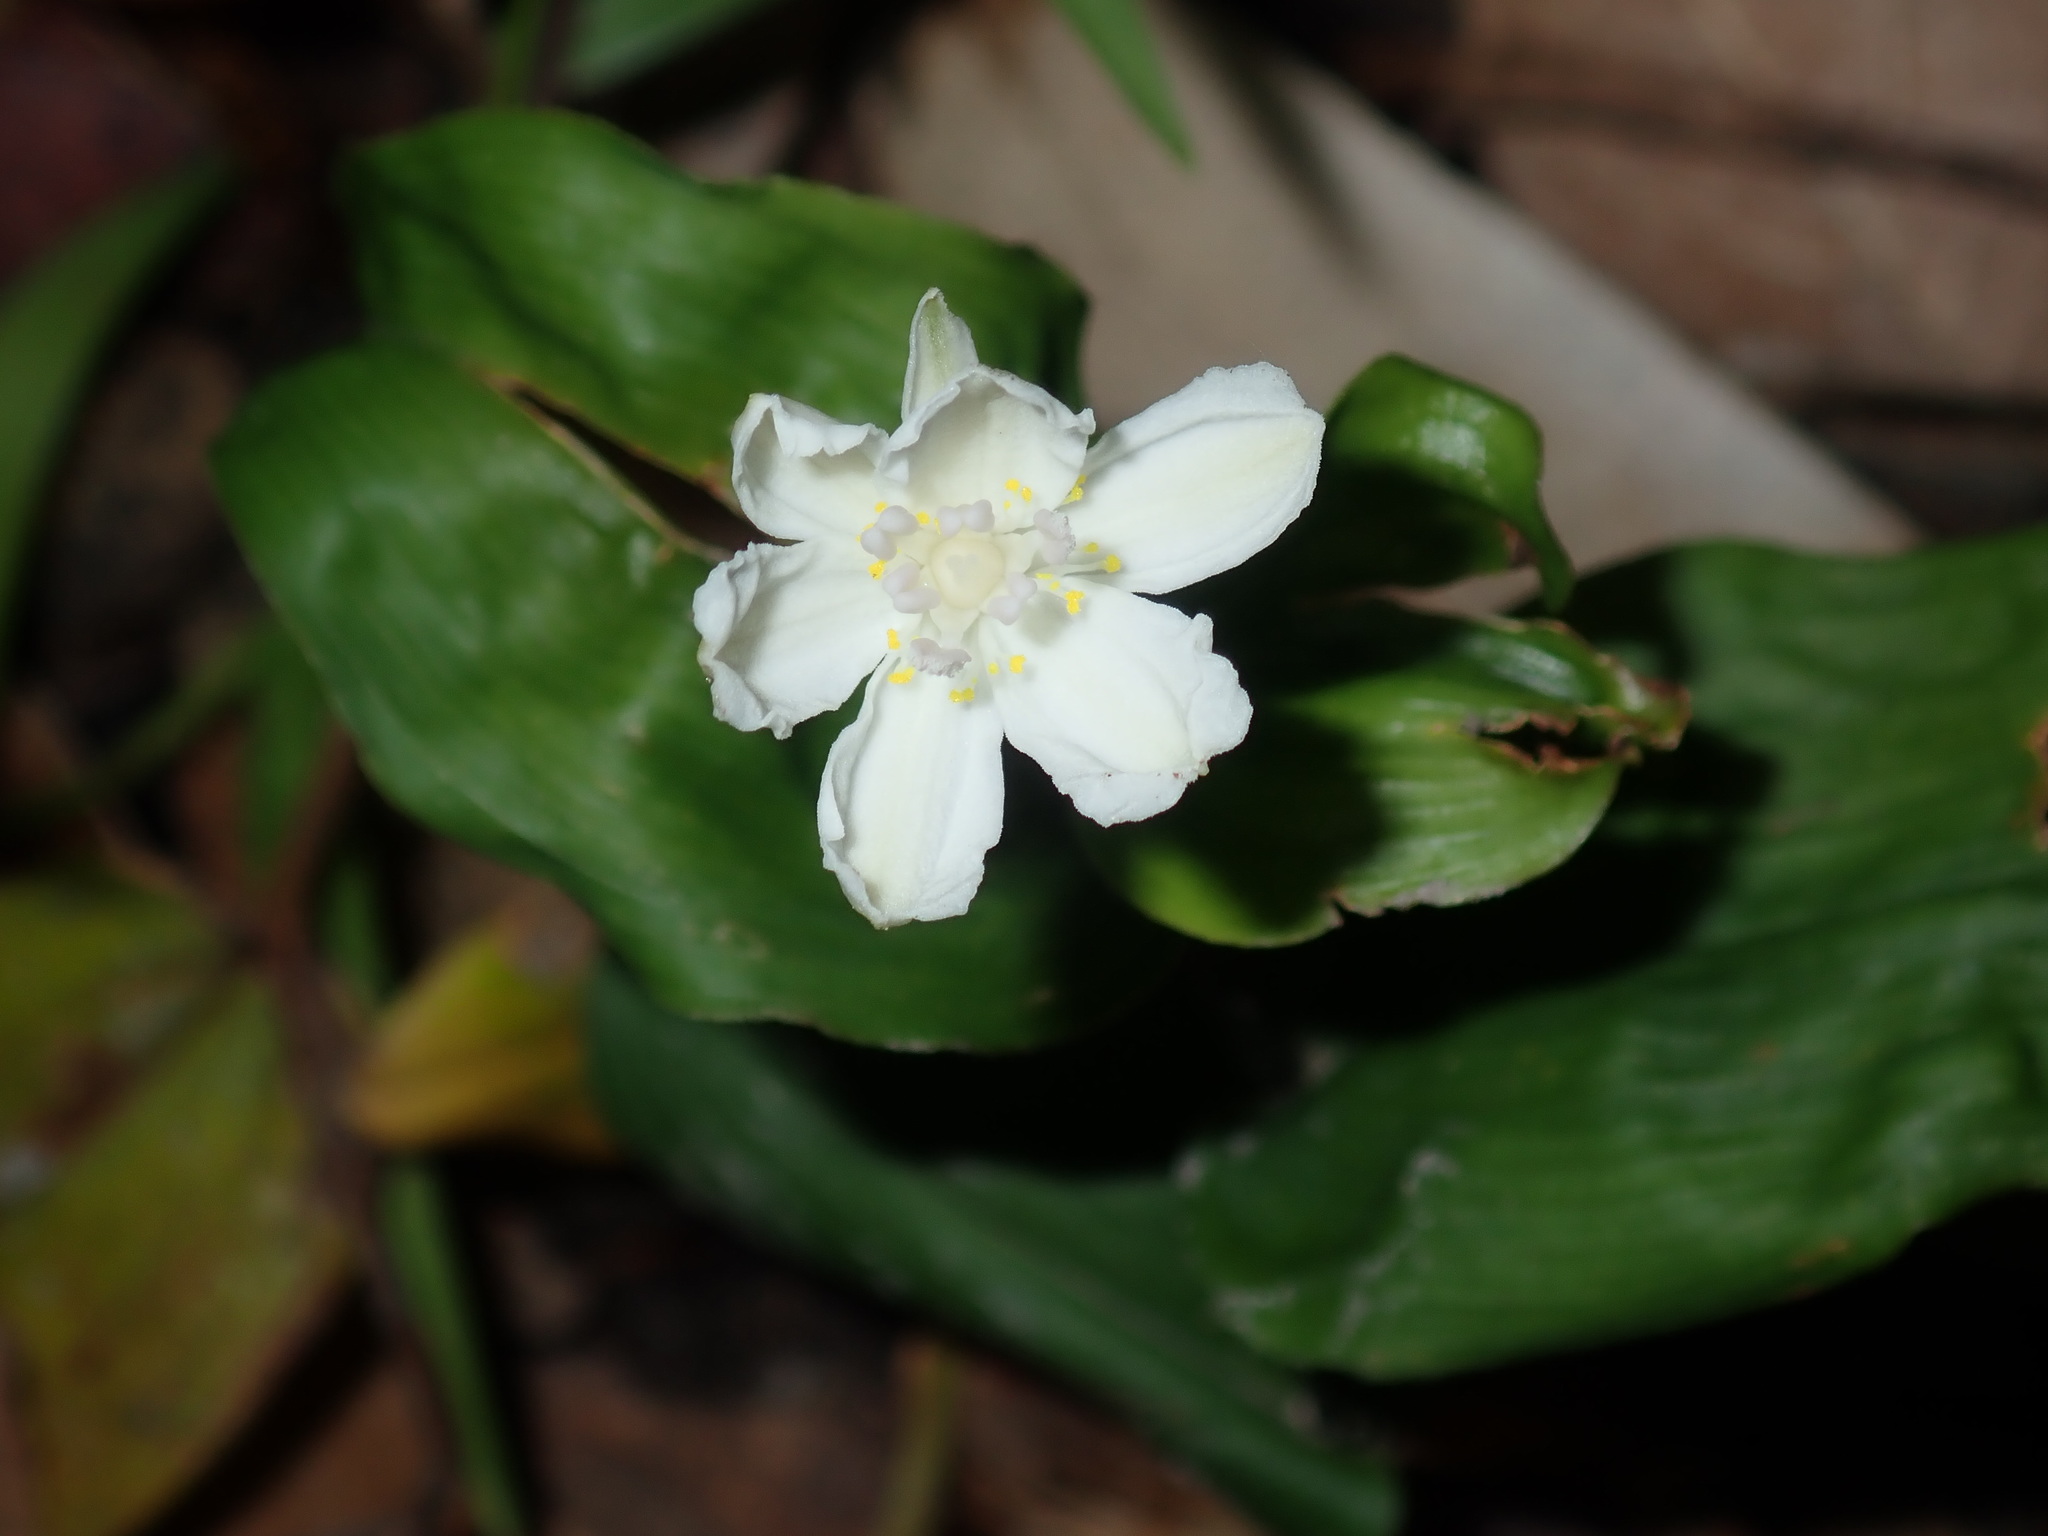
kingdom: Plantae
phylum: Tracheophyta
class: Liliopsida
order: Liliales
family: Colchicaceae
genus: Tripladenia
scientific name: Tripladenia cunninghamii
